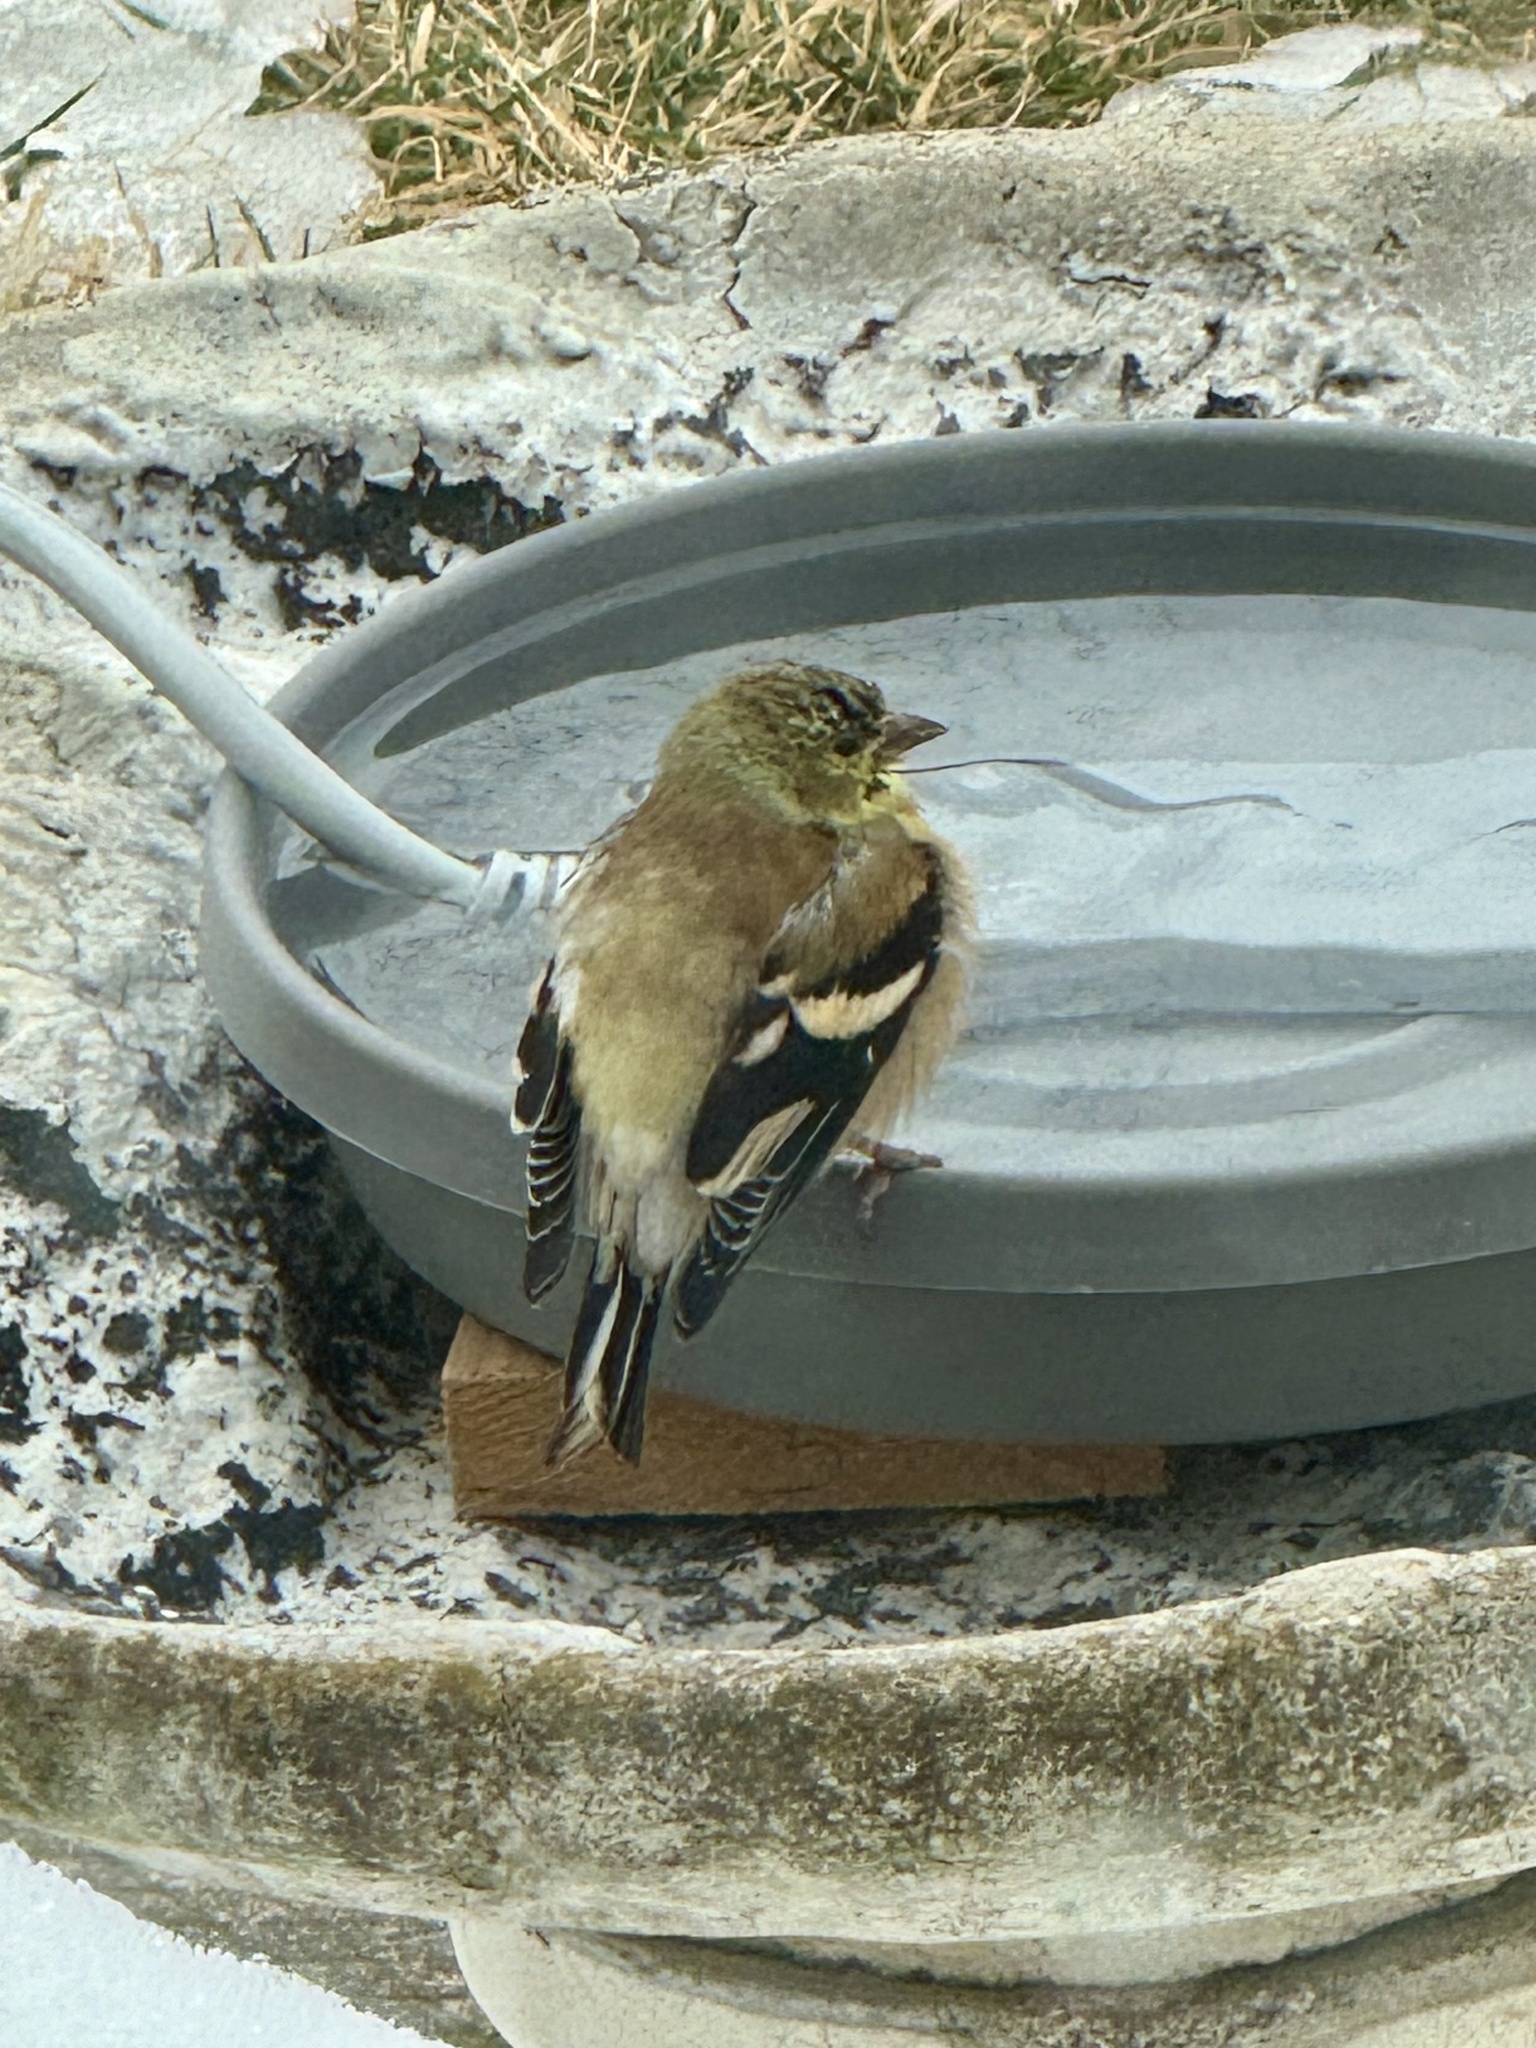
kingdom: Animalia
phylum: Chordata
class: Aves
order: Passeriformes
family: Fringillidae
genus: Spinus
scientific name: Spinus tristis
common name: American goldfinch
